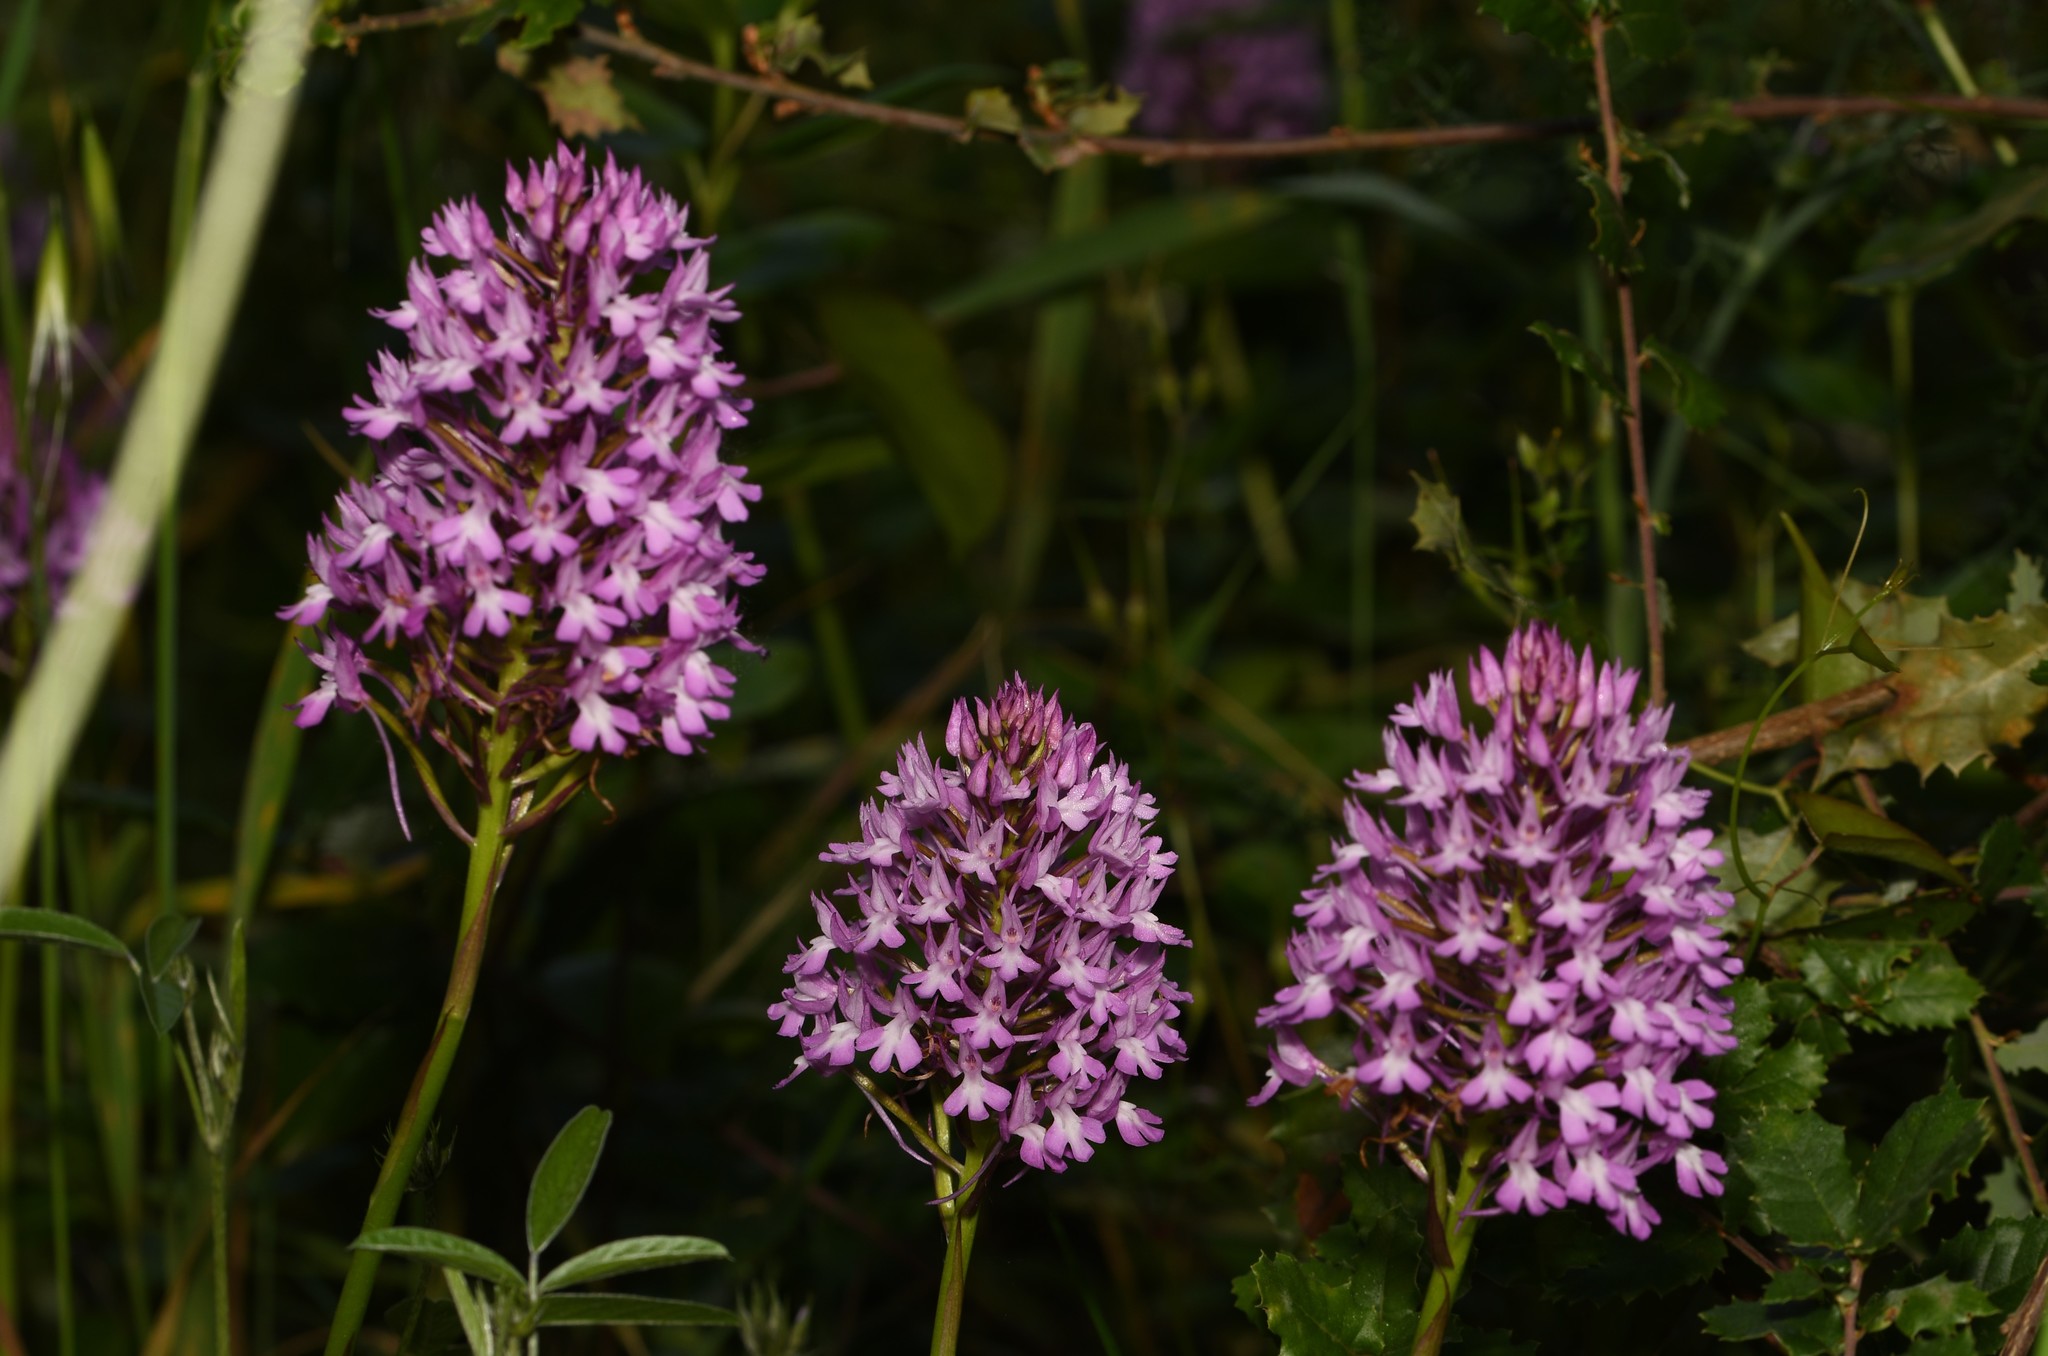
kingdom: Plantae
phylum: Tracheophyta
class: Liliopsida
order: Asparagales
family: Orchidaceae
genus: Anacamptis
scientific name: Anacamptis pyramidalis
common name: Pyramidal orchid
